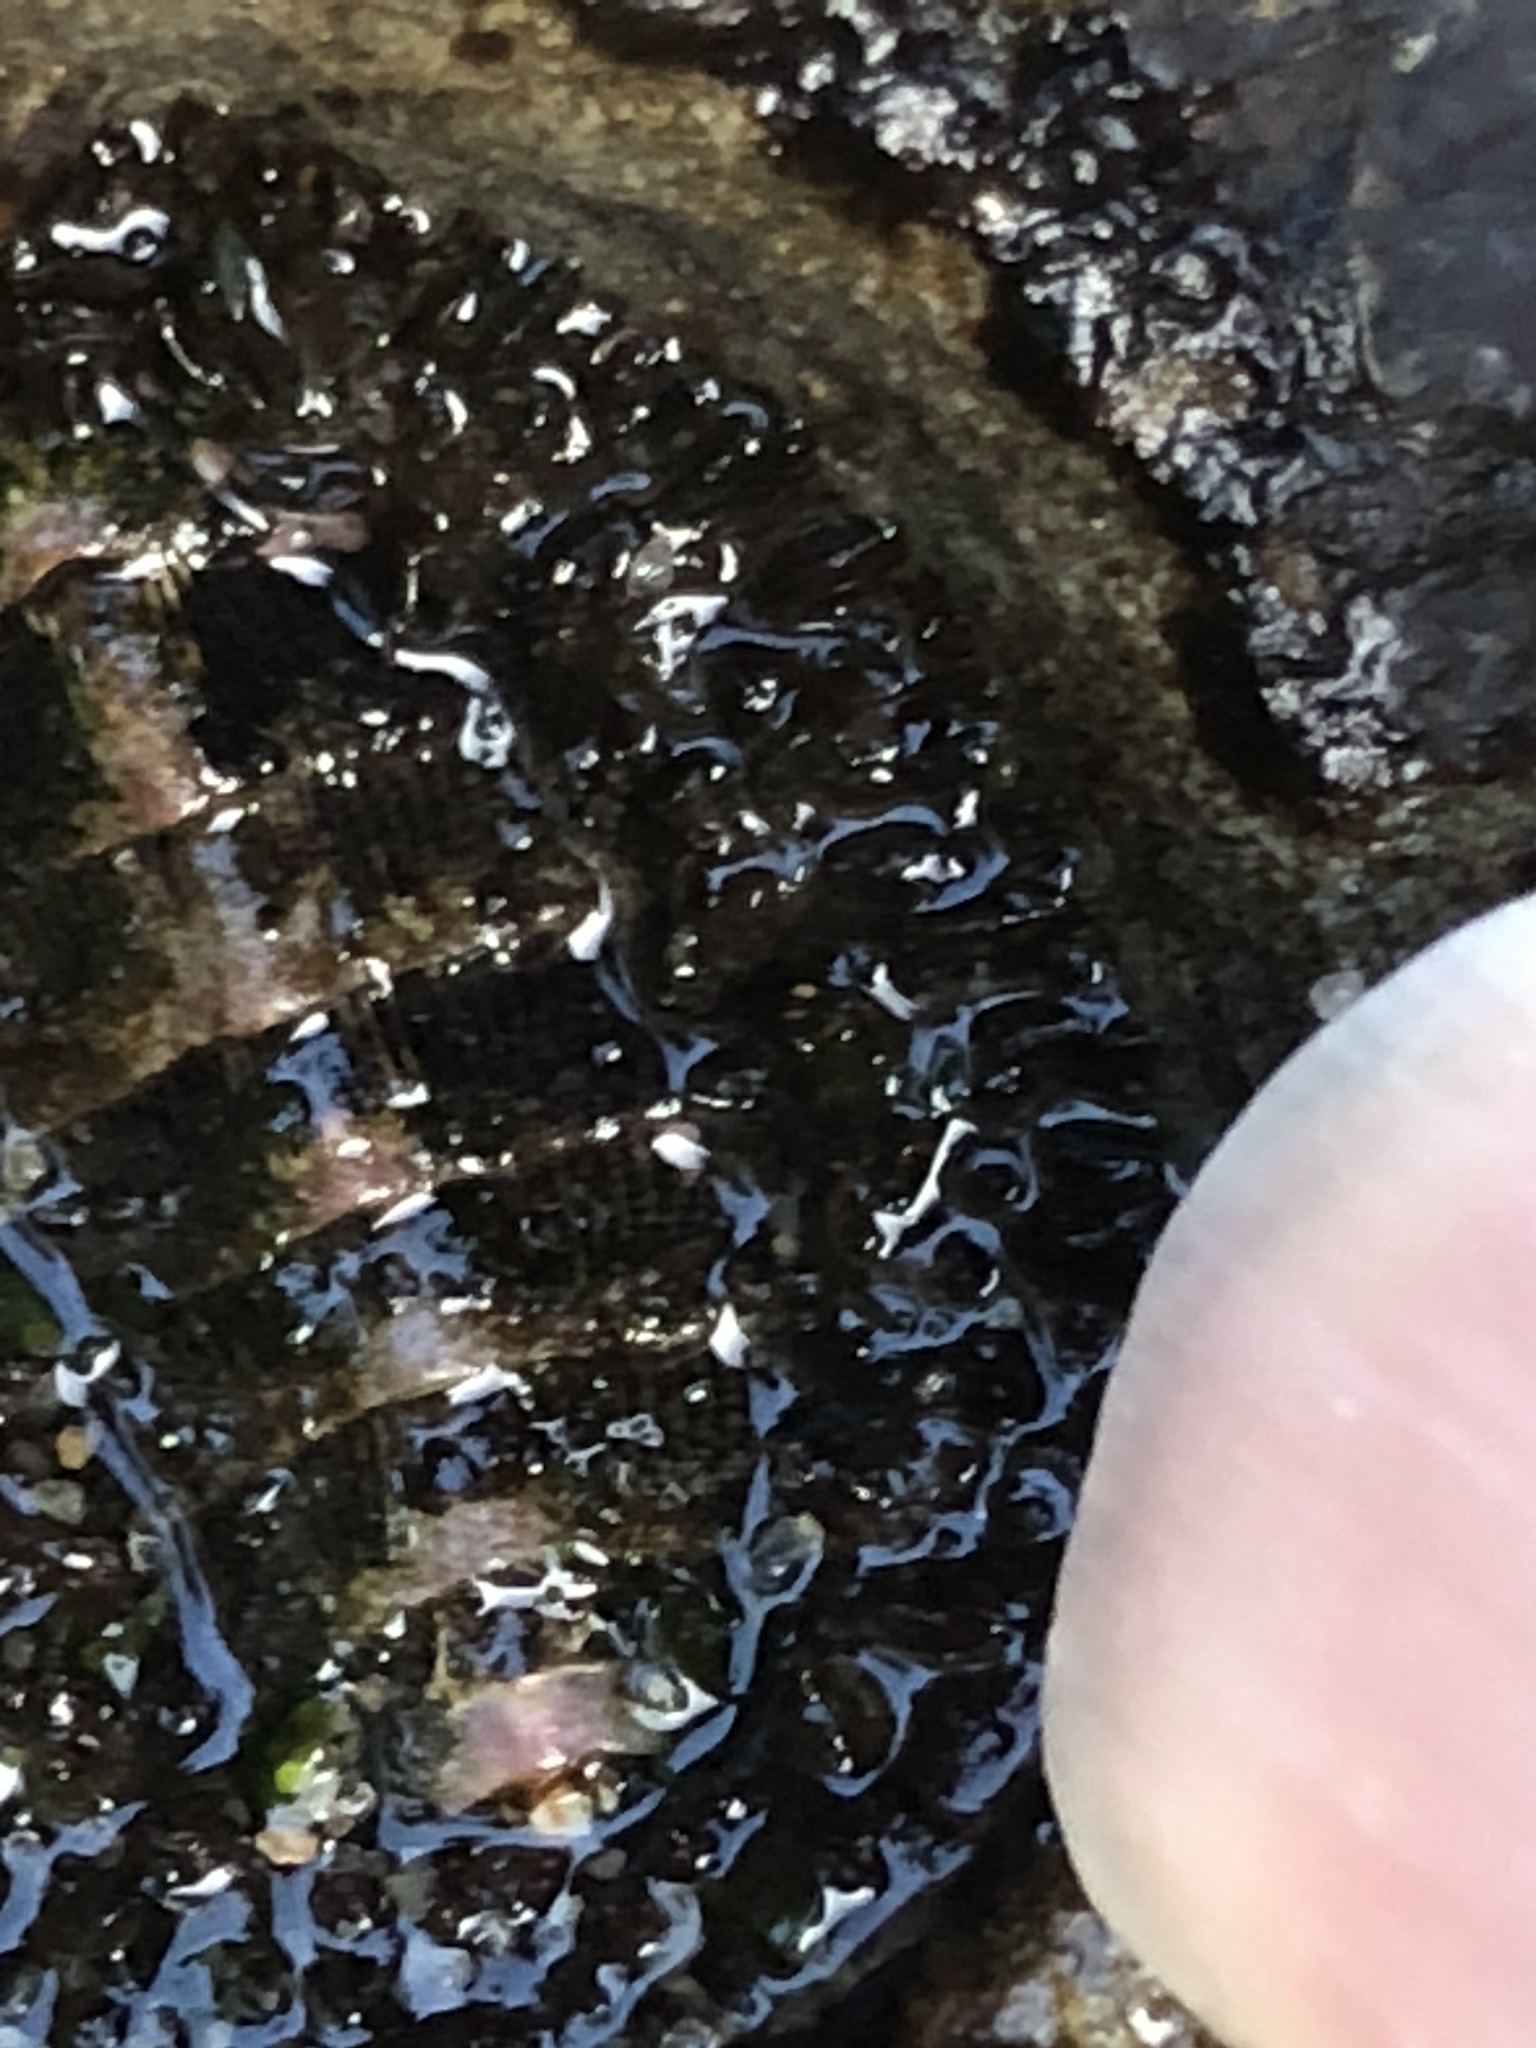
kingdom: Animalia
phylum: Mollusca
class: Polyplacophora
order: Chitonida
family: Mopaliidae
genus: Mopalia
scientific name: Mopalia muscosa
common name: Mossy chiton
